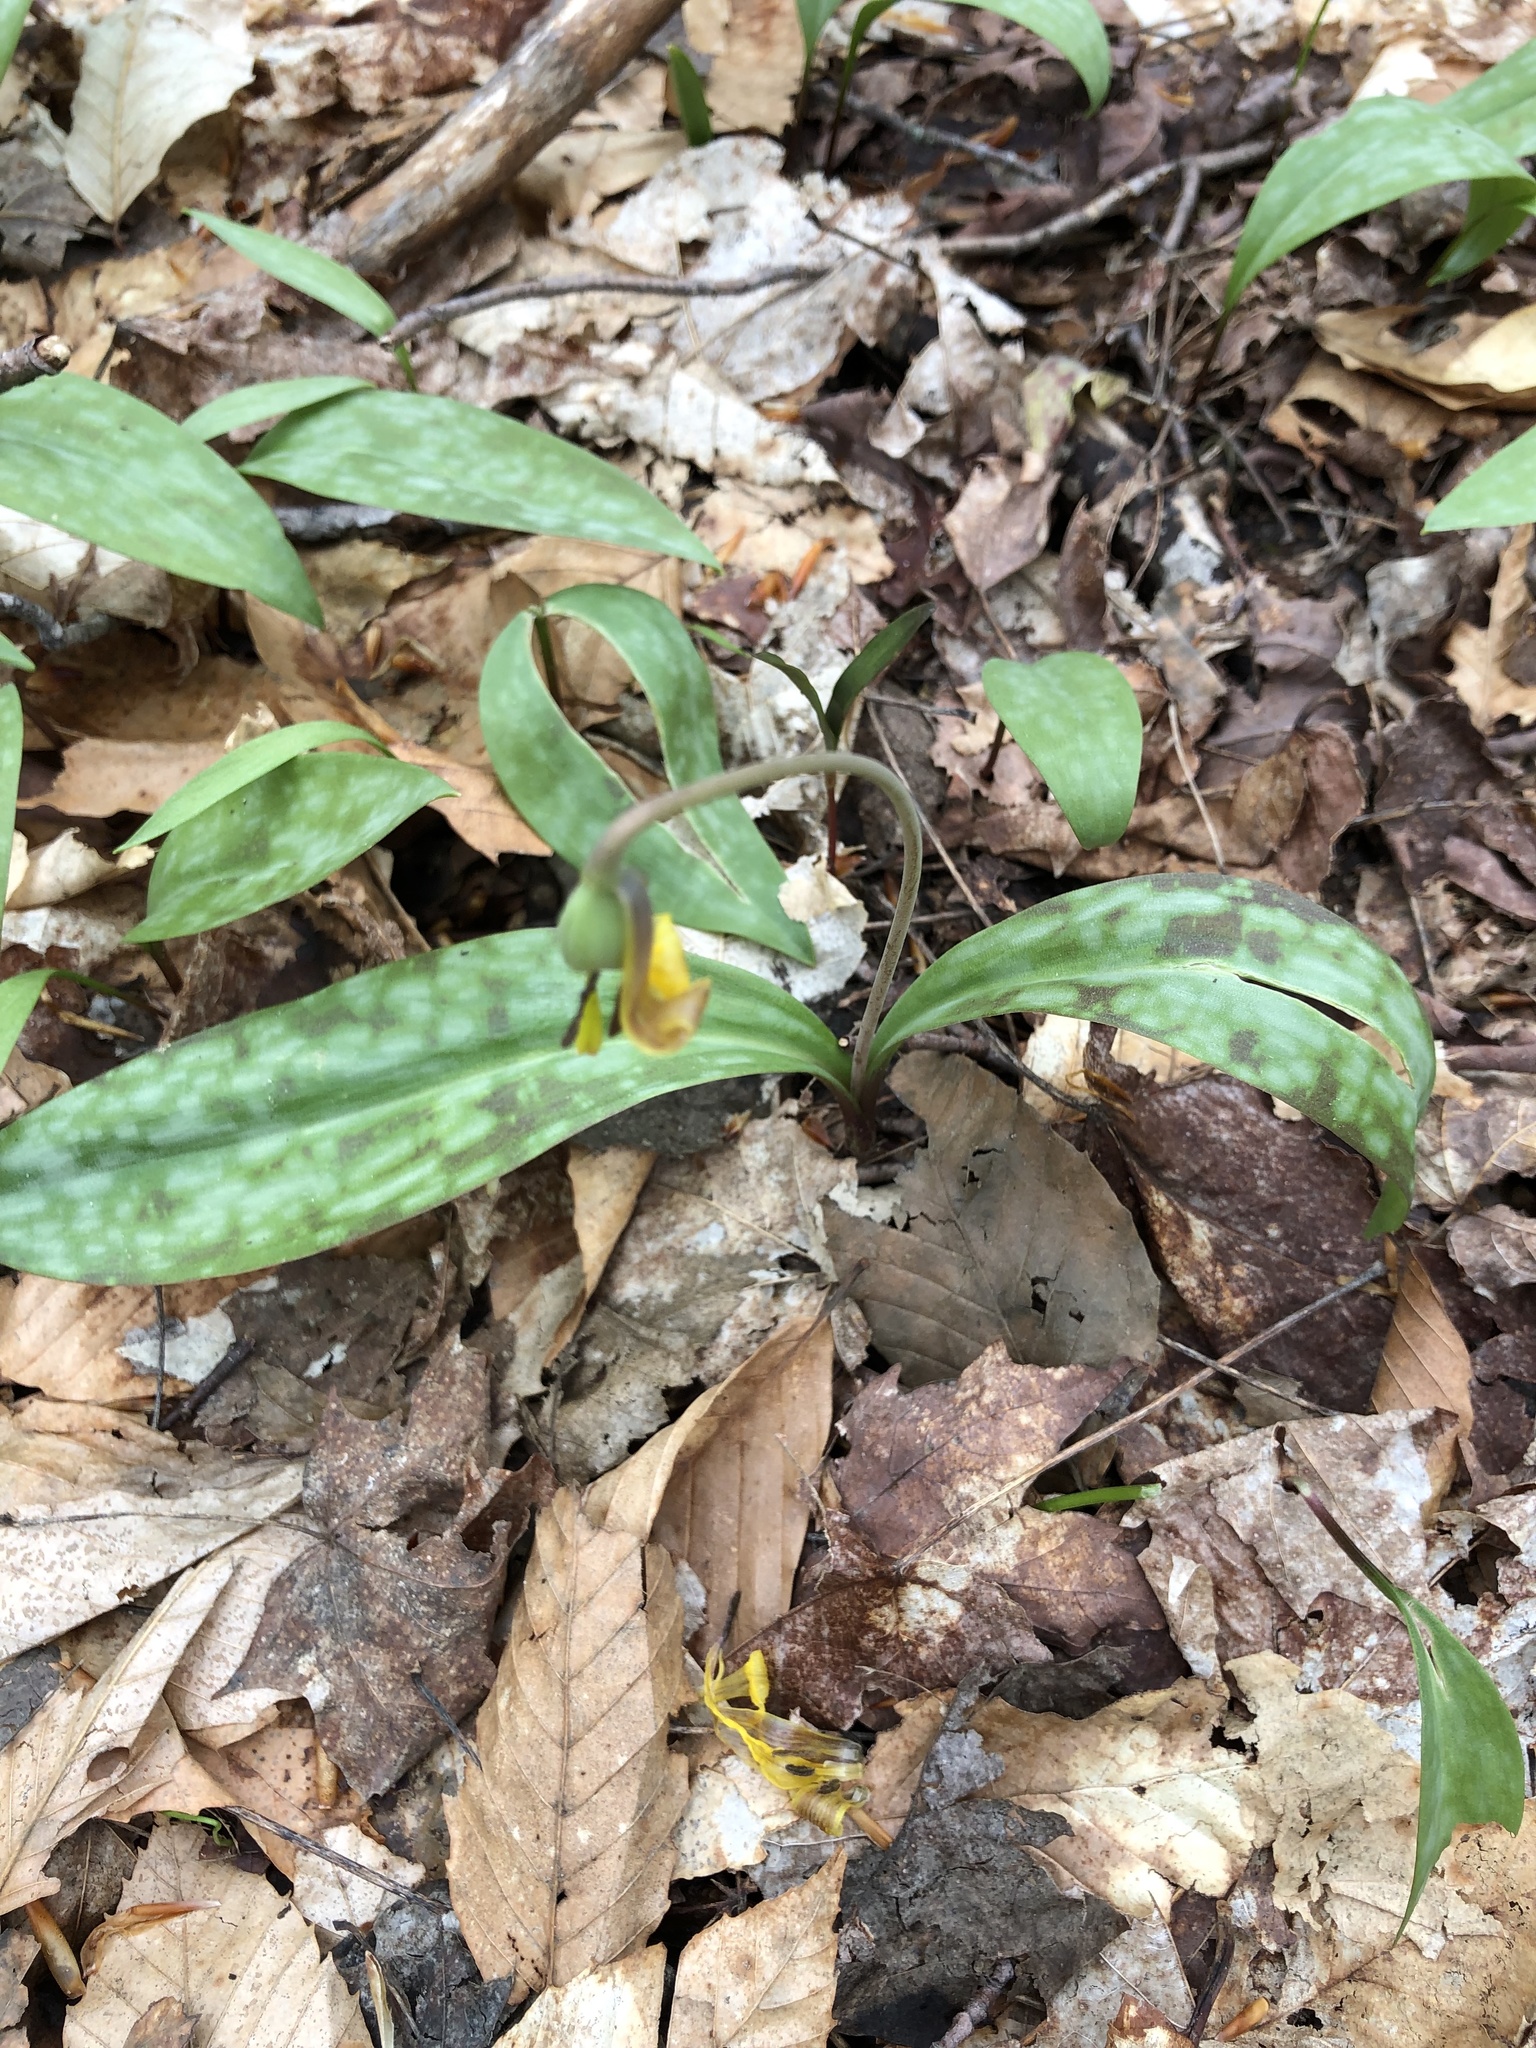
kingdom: Plantae
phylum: Tracheophyta
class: Liliopsida
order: Liliales
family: Liliaceae
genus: Erythronium
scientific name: Erythronium americanum
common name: Yellow adder's-tongue
